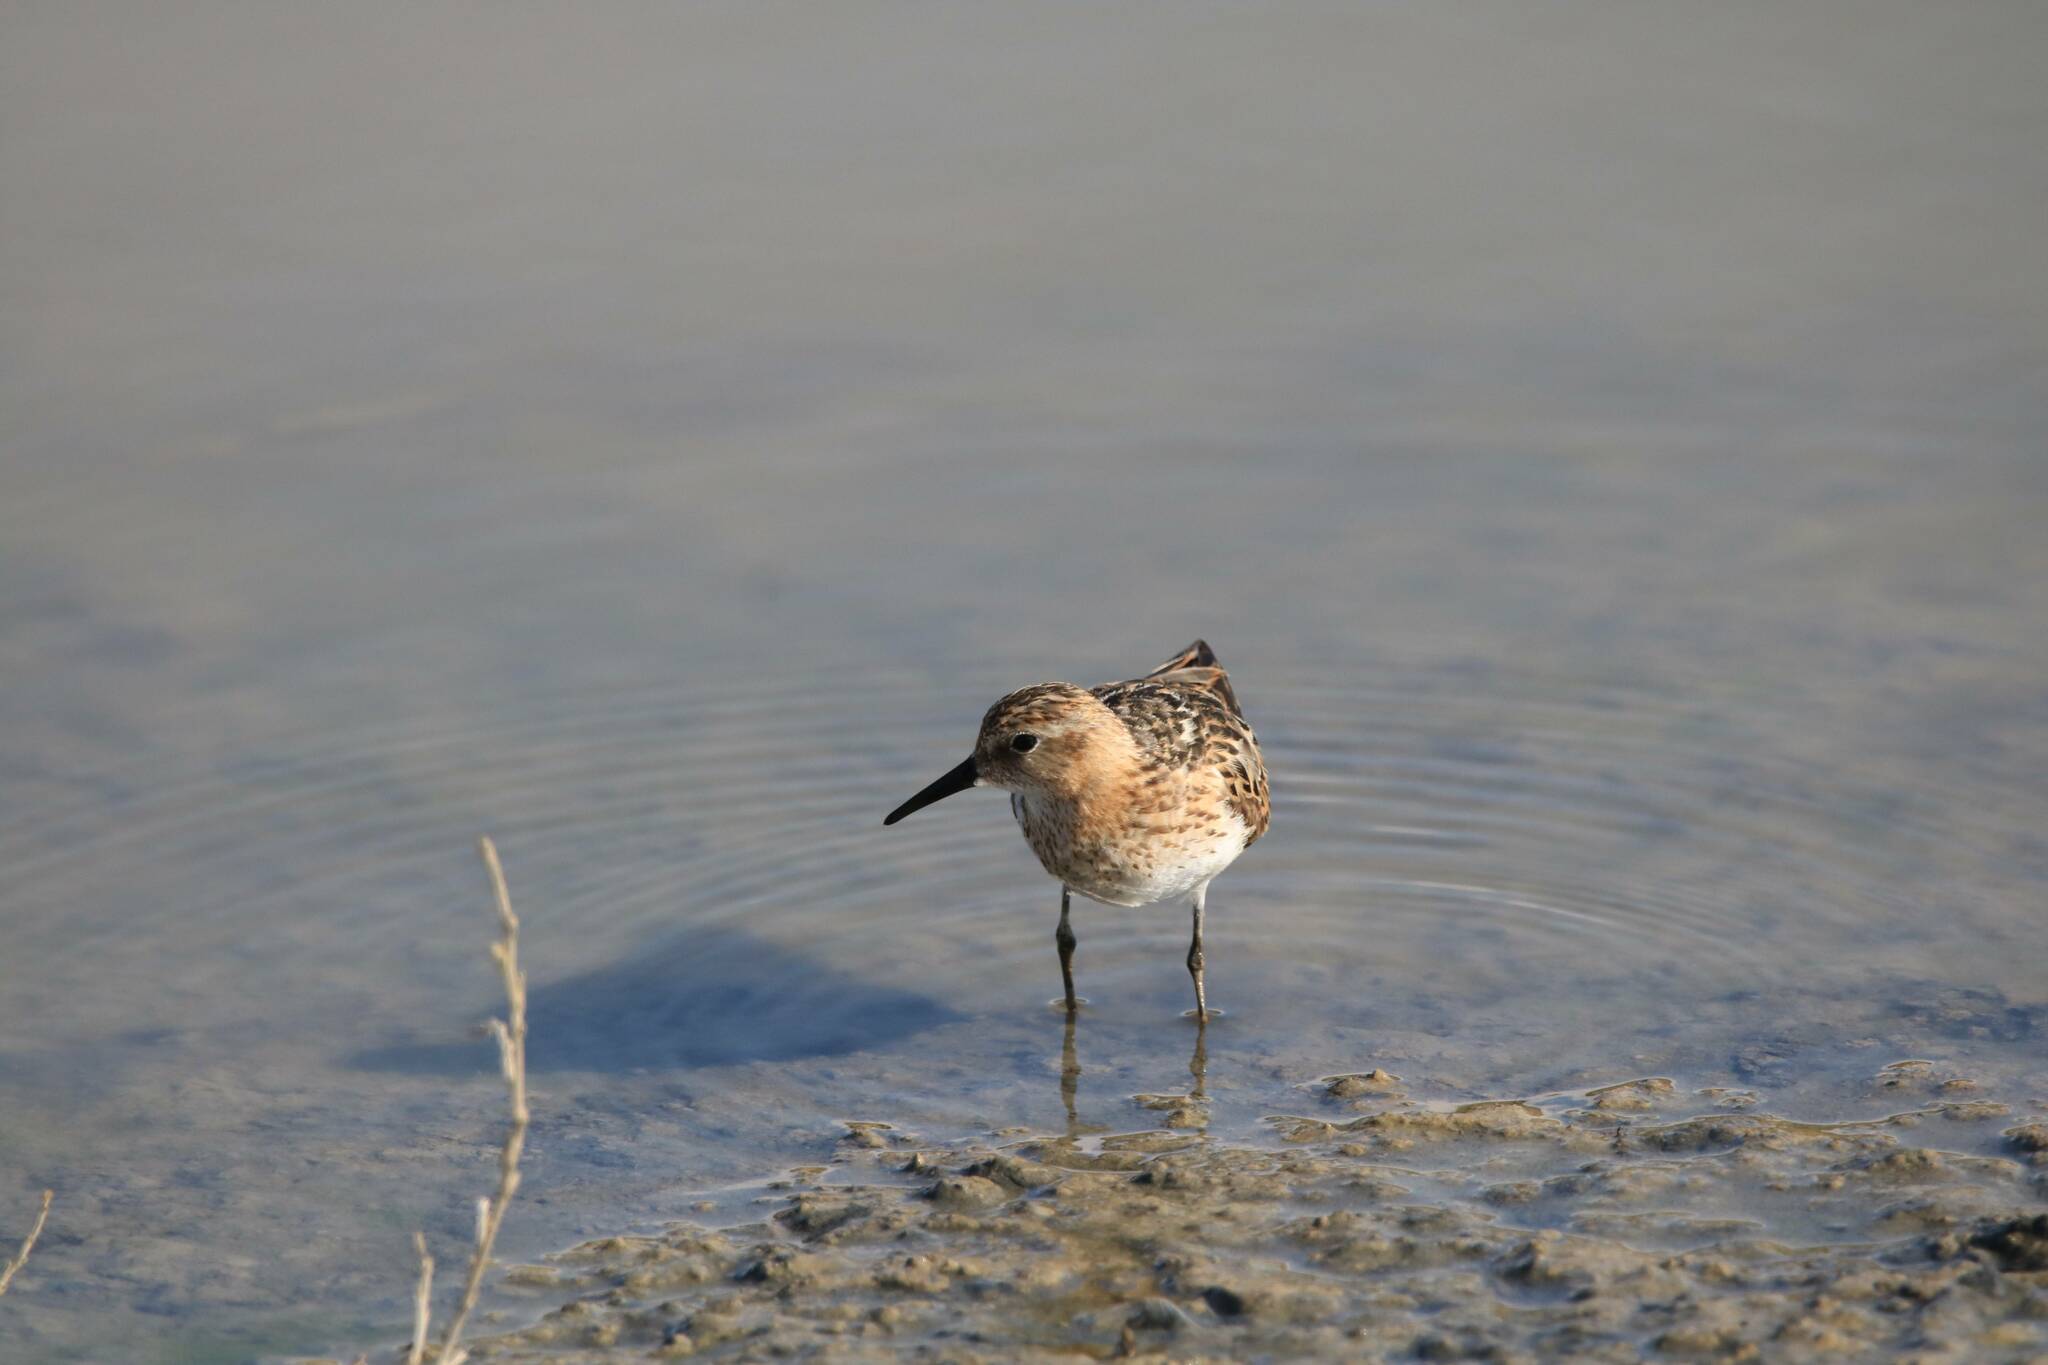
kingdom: Animalia
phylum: Chordata
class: Aves
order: Charadriiformes
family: Scolopacidae
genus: Calidris
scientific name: Calidris minuta
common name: Little stint
